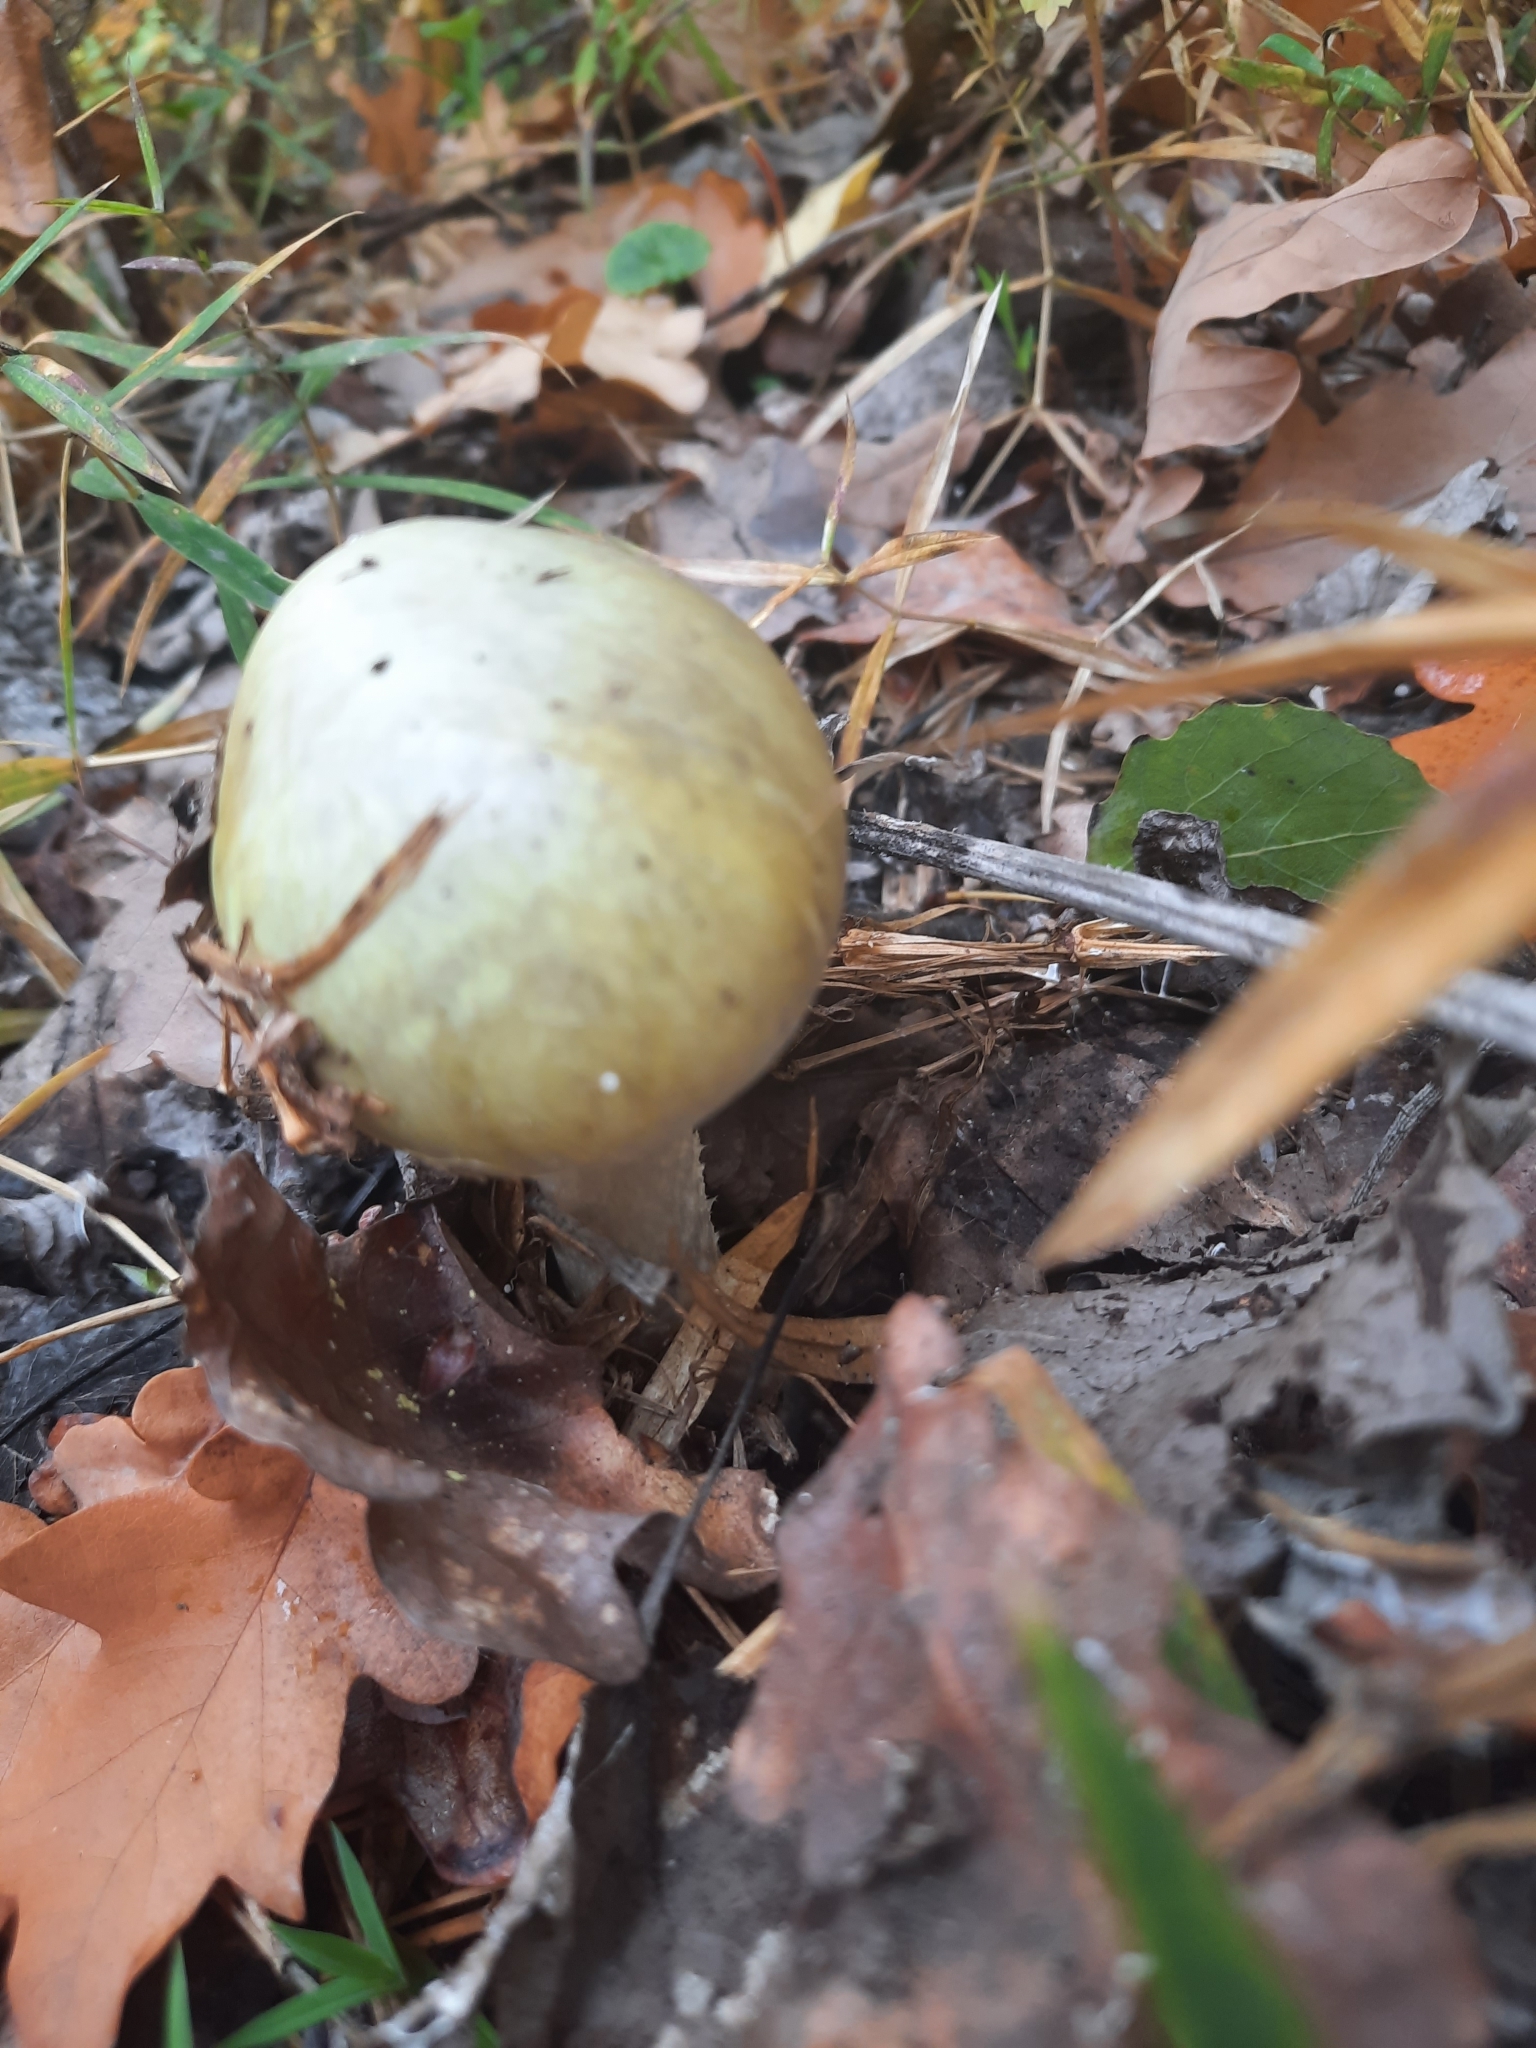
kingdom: Fungi
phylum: Basidiomycota
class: Agaricomycetes
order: Agaricales
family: Amanitaceae
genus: Amanita
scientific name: Amanita phalloides
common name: Death cap
